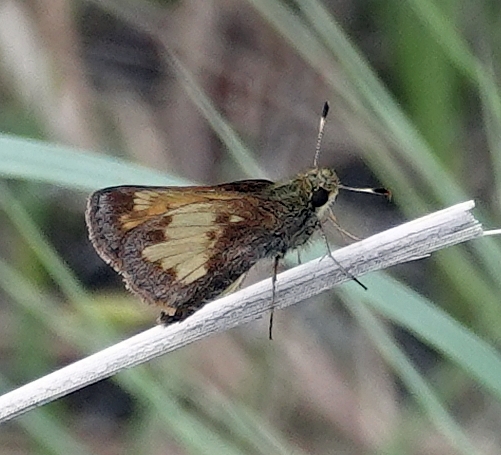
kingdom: Animalia
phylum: Arthropoda
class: Insecta
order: Lepidoptera
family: Hesperiidae
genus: Lon
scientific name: Lon hobomok
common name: Hobomok skipper
